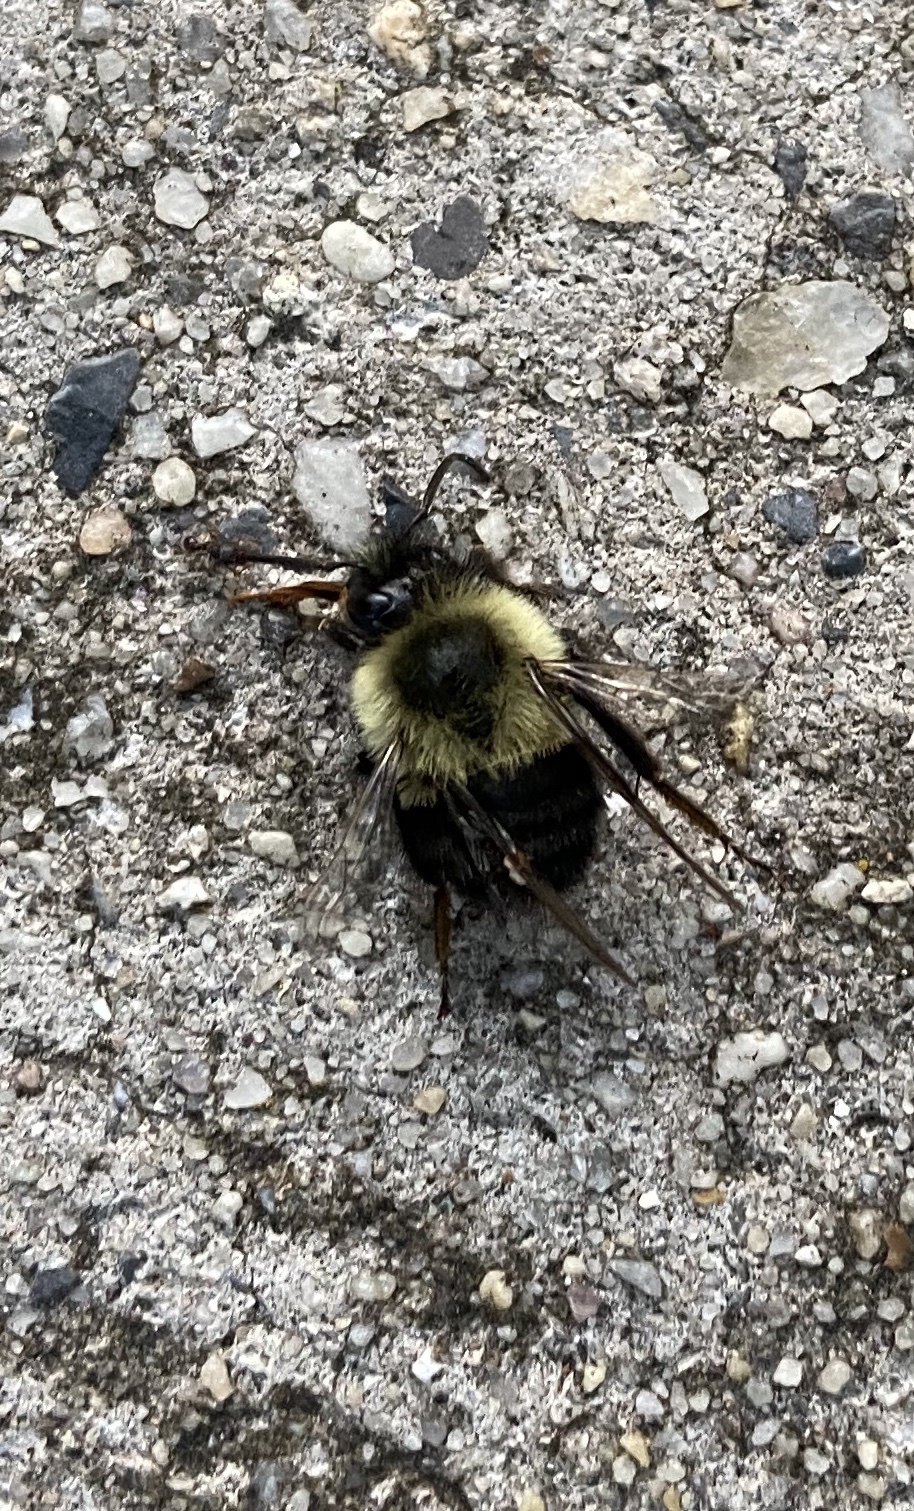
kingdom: Animalia
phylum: Arthropoda
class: Insecta
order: Hymenoptera
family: Apidae
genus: Bombus
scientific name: Bombus impatiens
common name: Common eastern bumble bee
